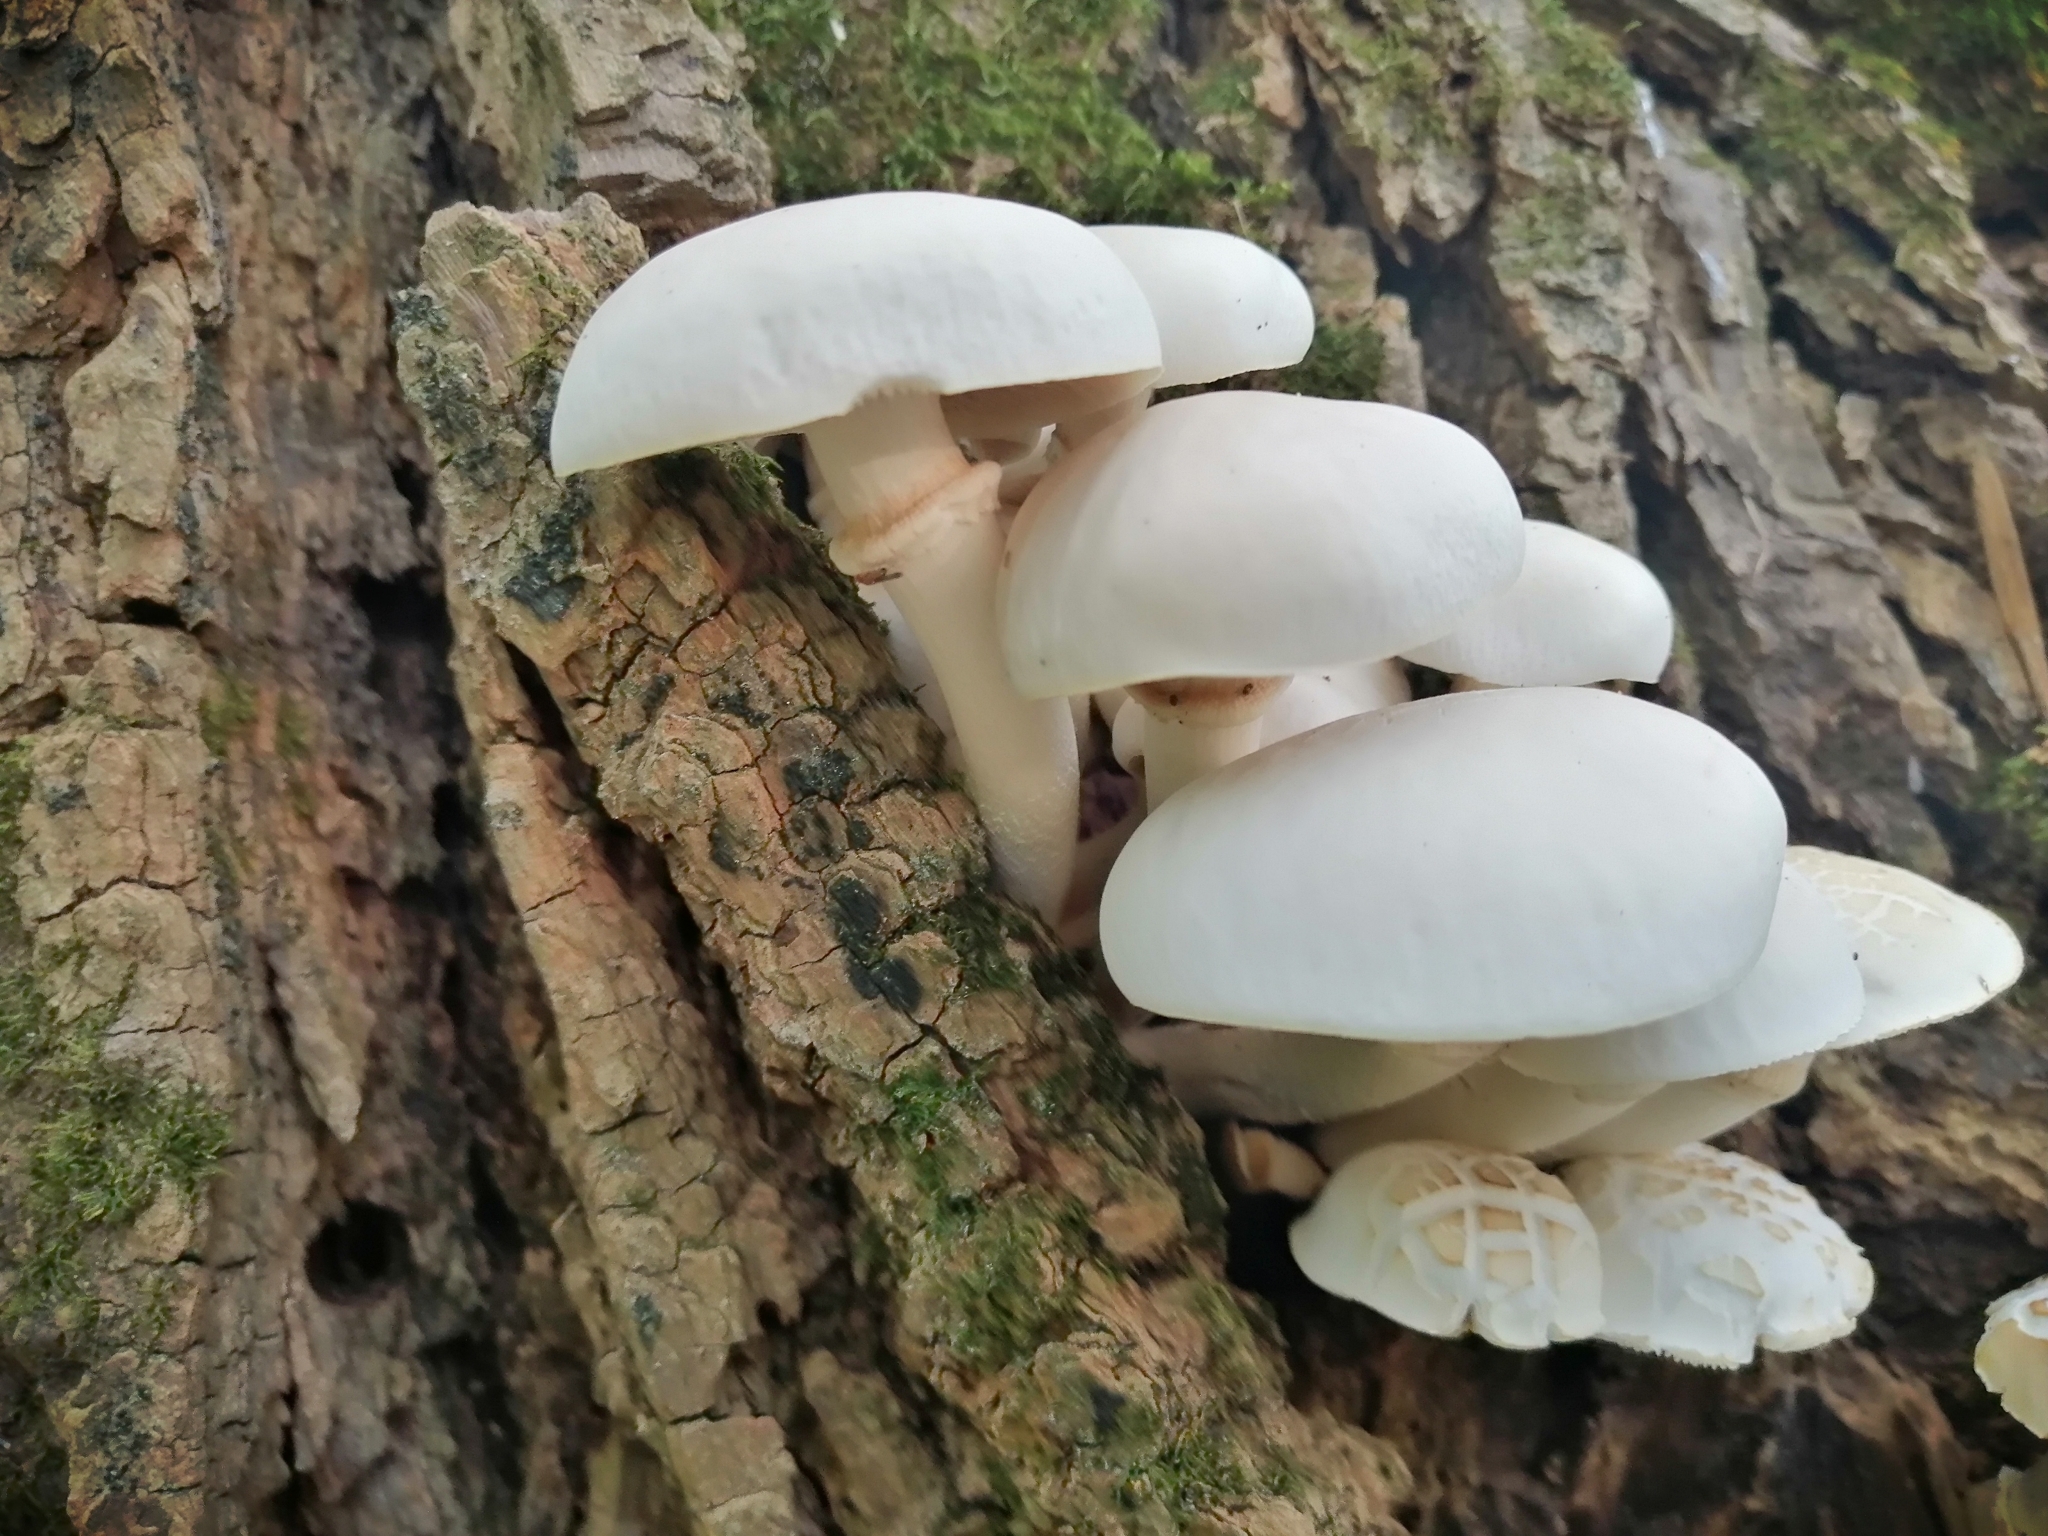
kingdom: Fungi
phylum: Basidiomycota
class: Agaricomycetes
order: Agaricales
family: Tubariaceae
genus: Cyclocybe
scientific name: Cyclocybe cylindracea
